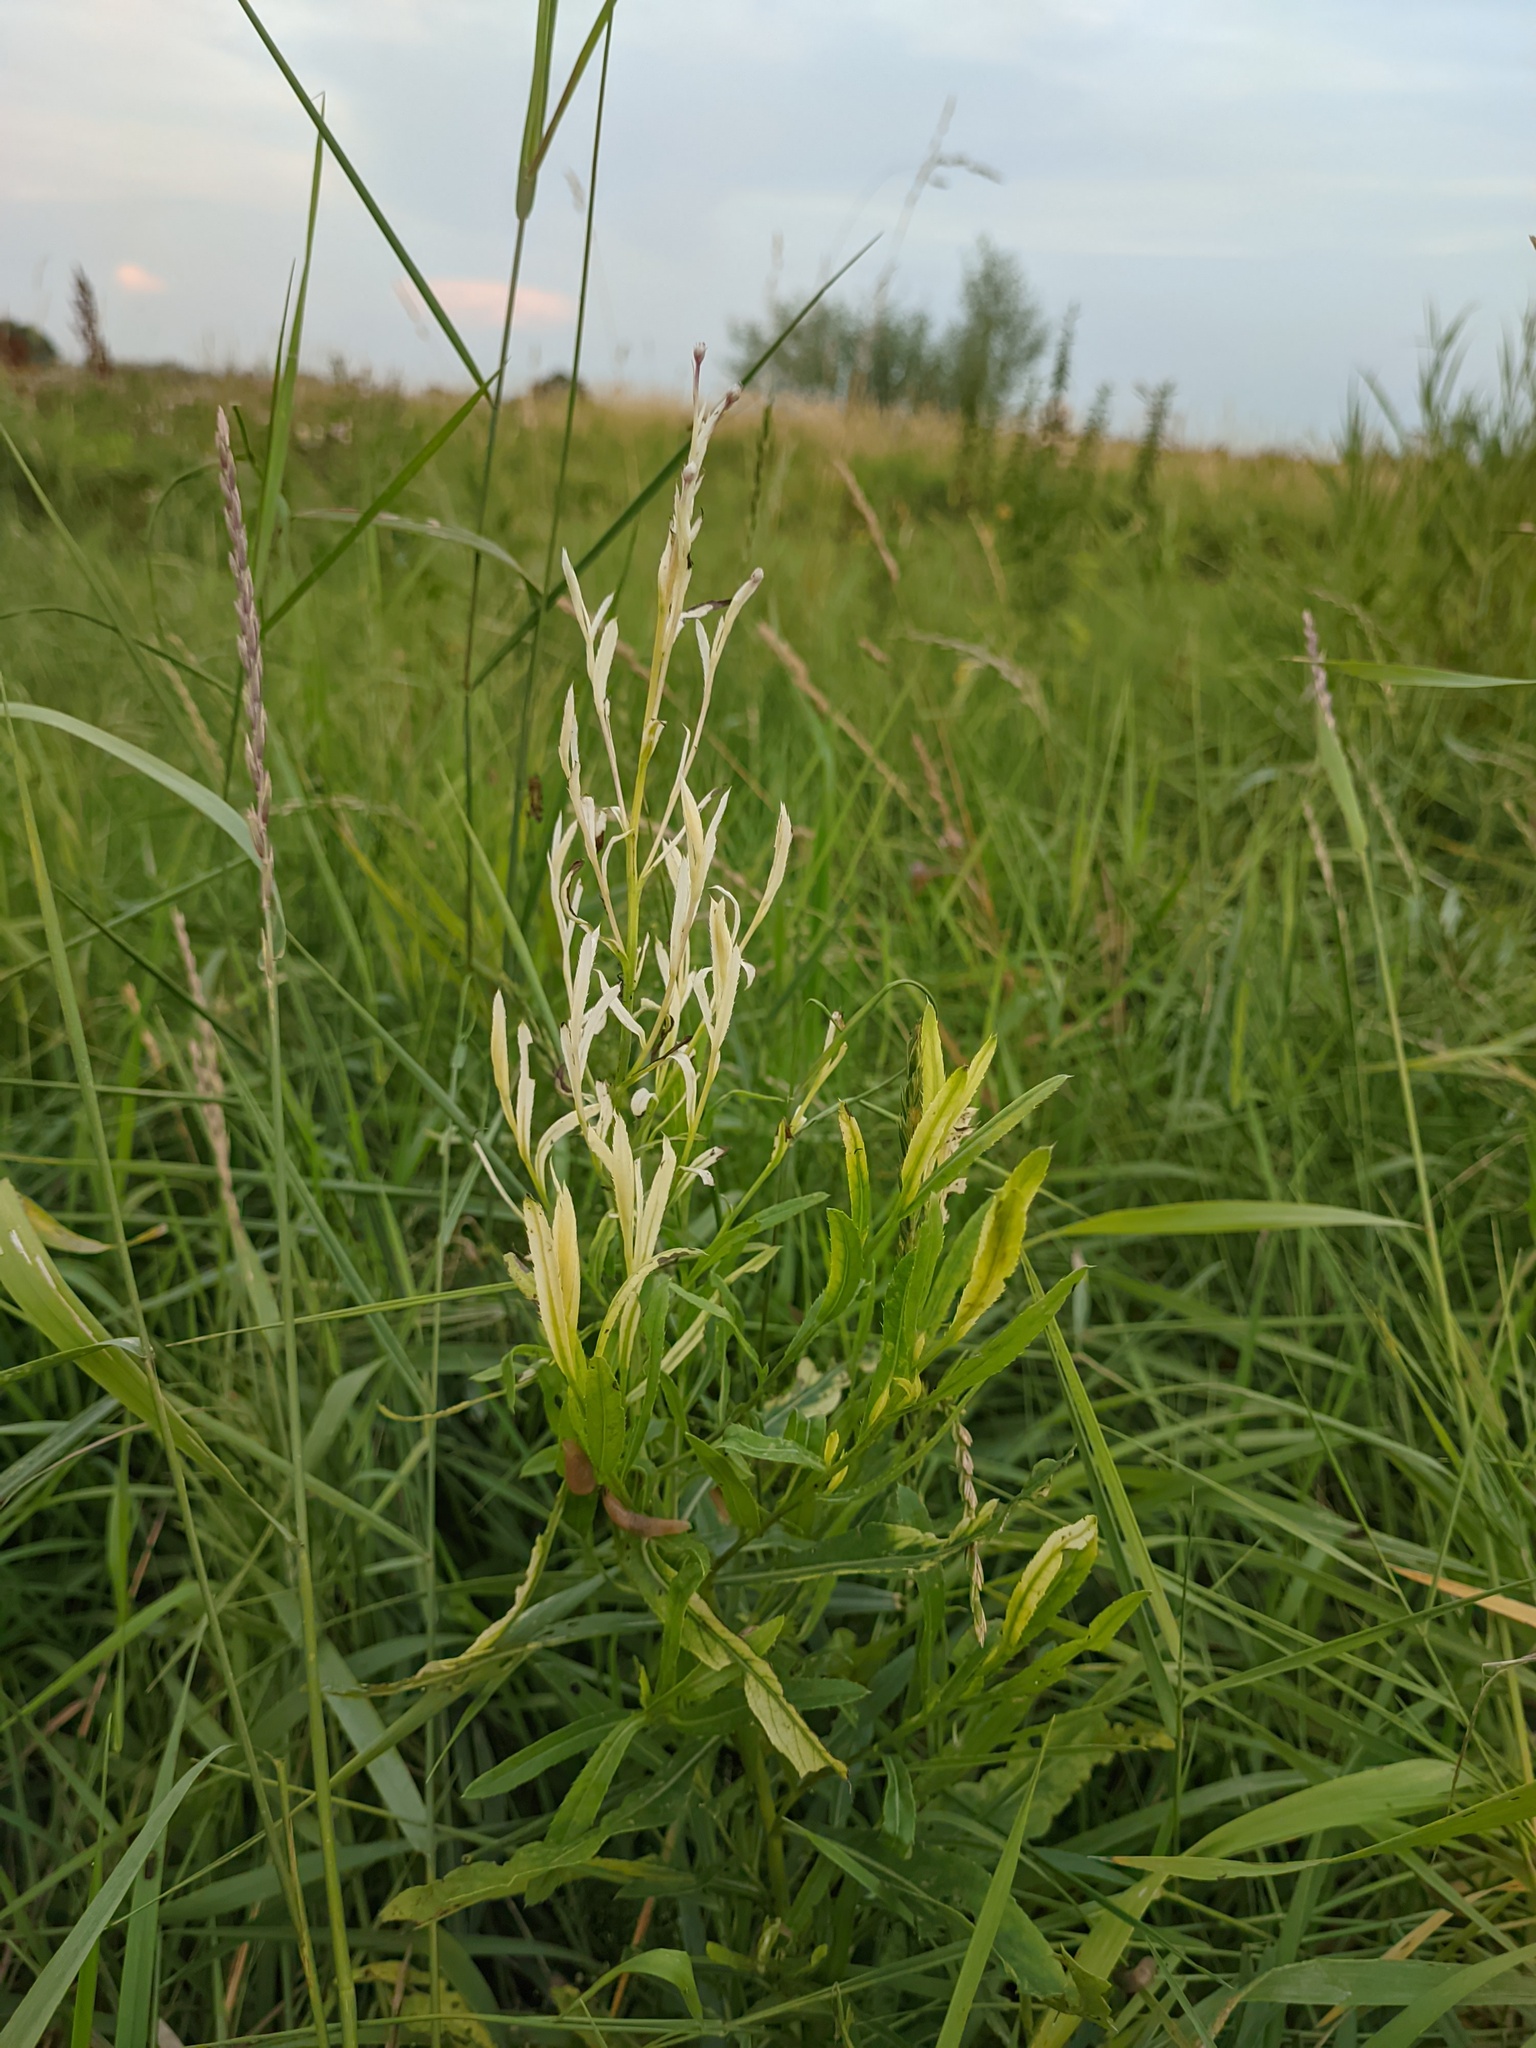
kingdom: Bacteria
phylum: Proteobacteria
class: Gammaproteobacteria
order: Pseudomonadales
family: Pseudomonadaceae
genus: Pseudomonas
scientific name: Pseudomonas syringae
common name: Bacterial speck
